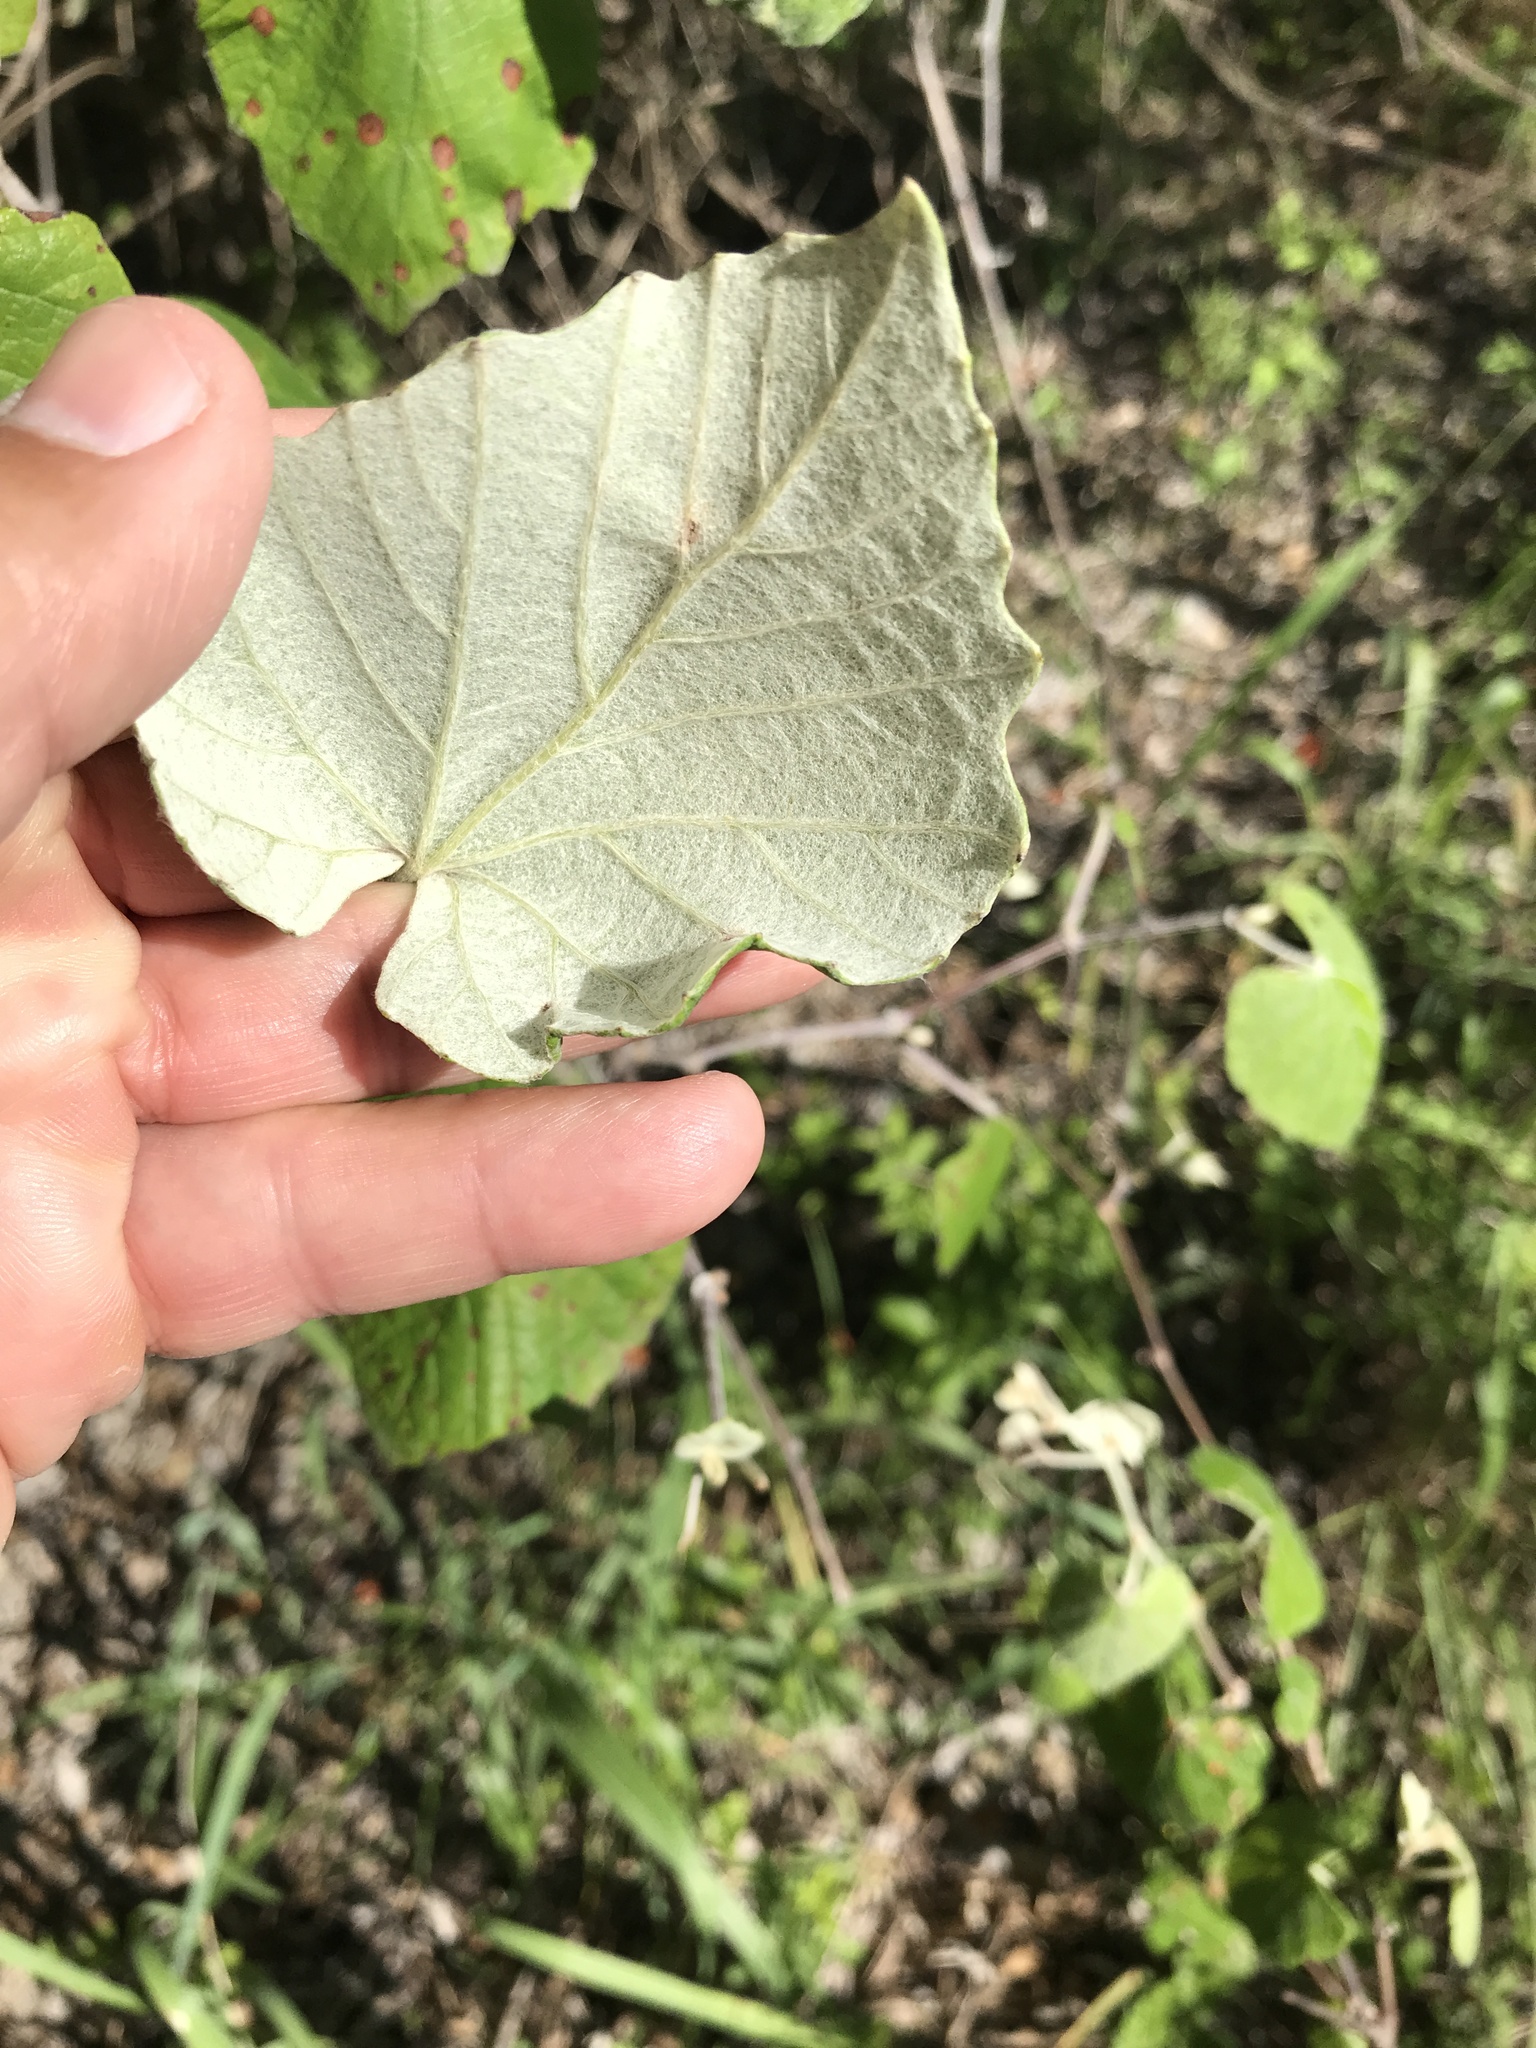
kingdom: Plantae
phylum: Tracheophyta
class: Magnoliopsida
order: Vitales
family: Vitaceae
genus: Vitis
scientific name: Vitis mustangensis
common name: Mustang grape
